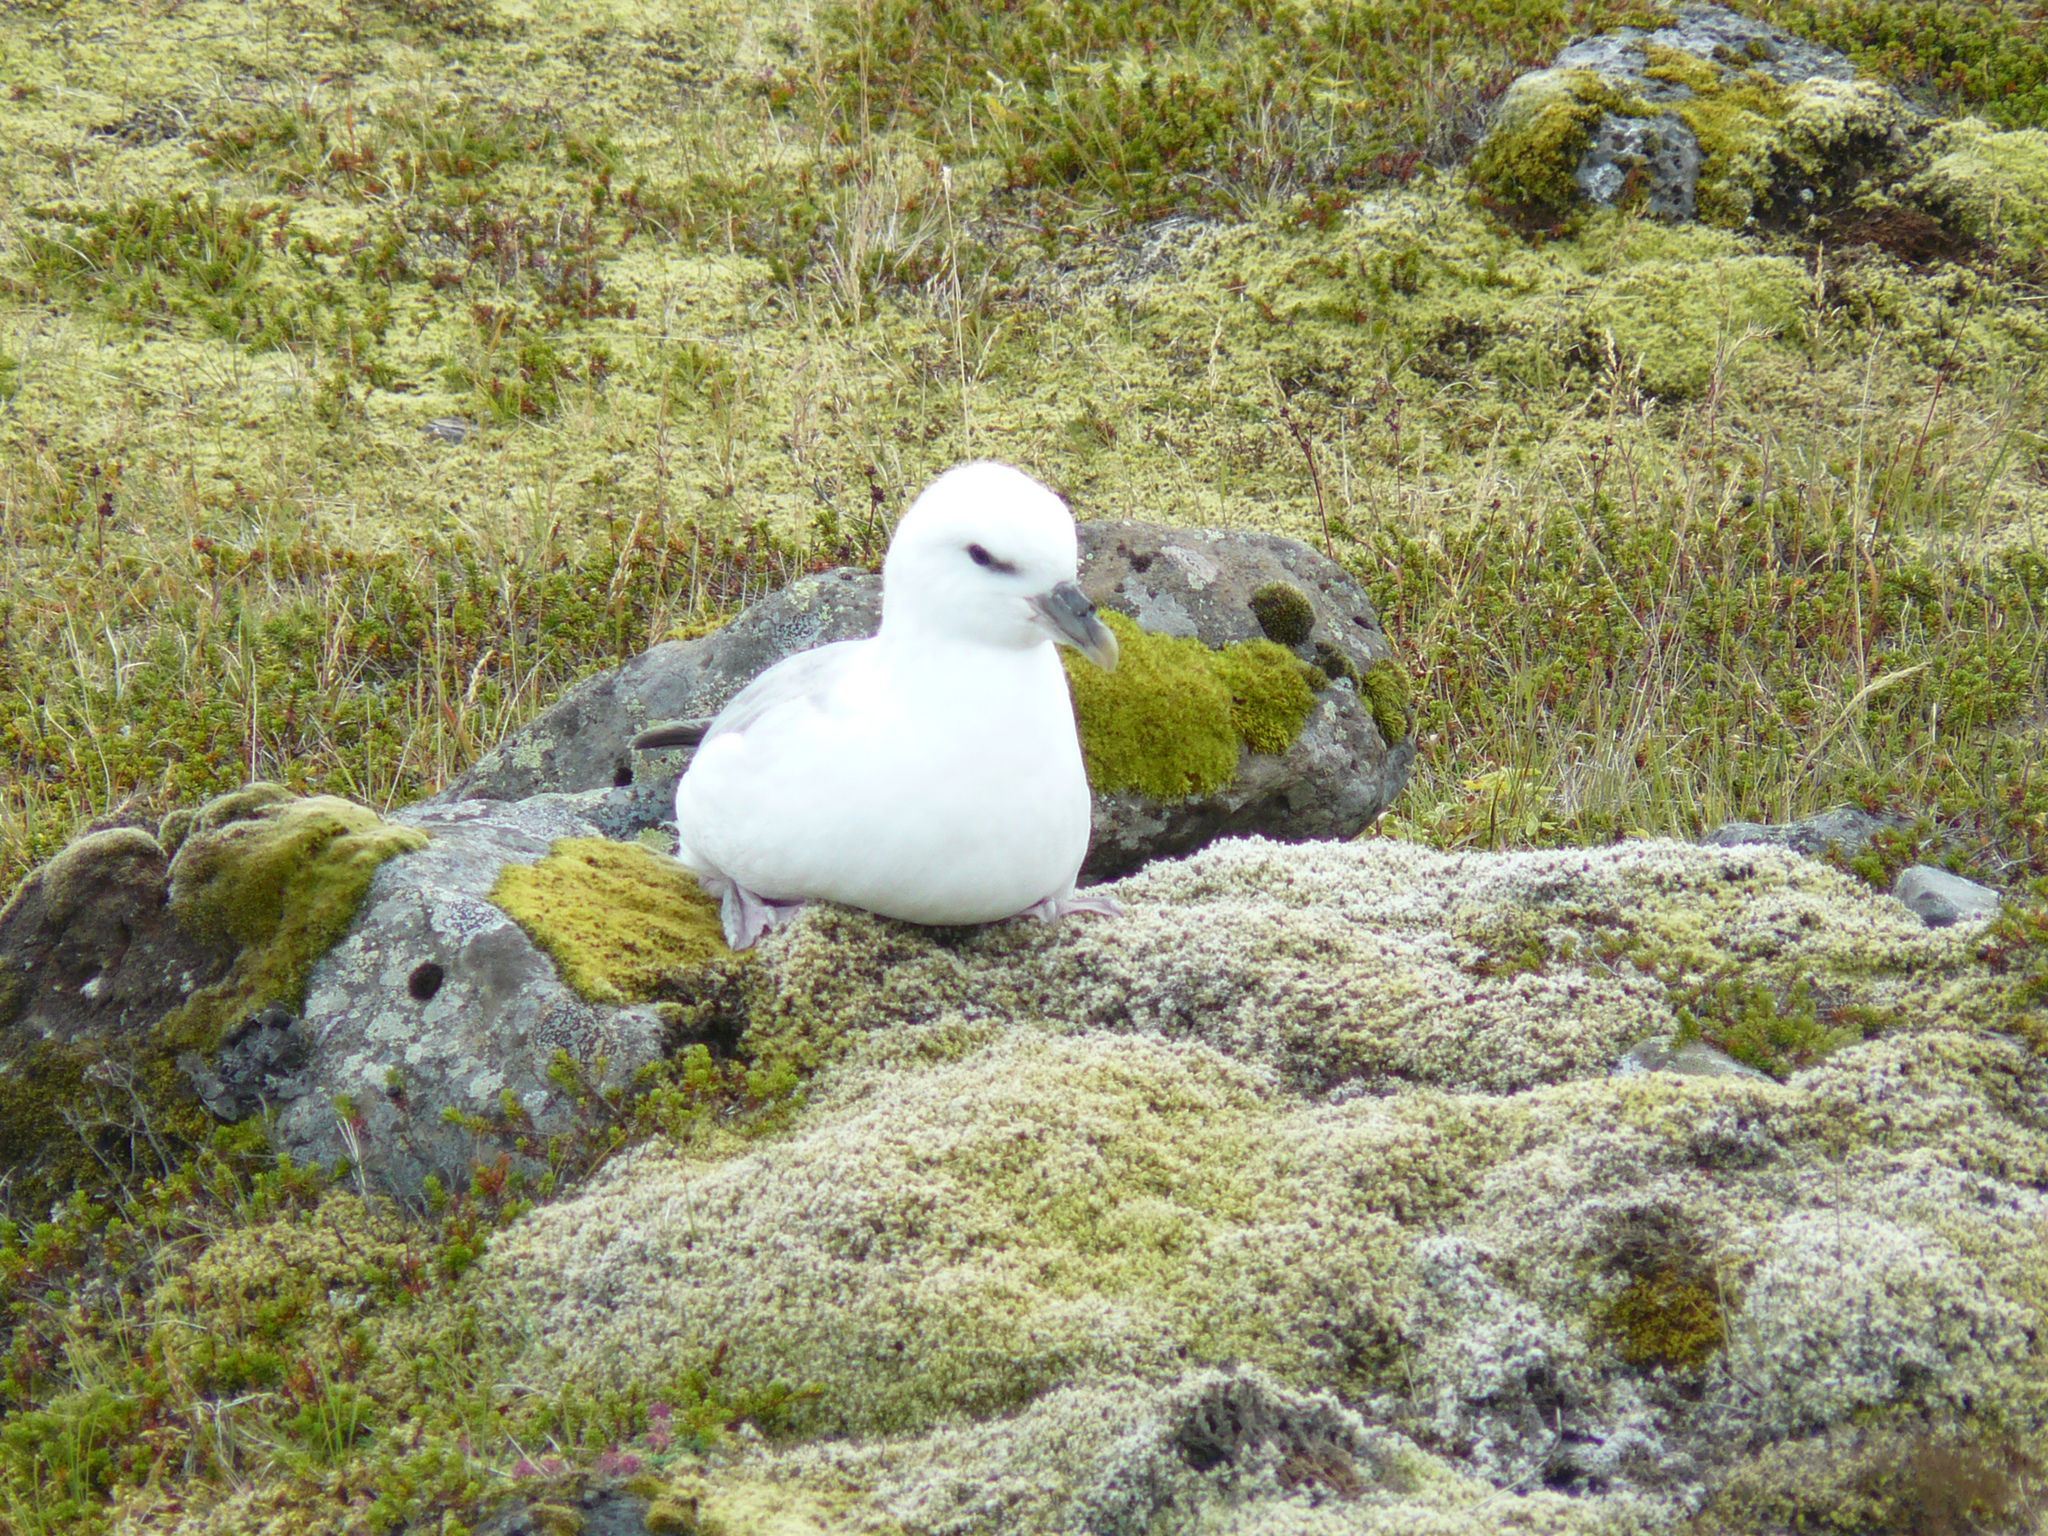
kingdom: Animalia
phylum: Chordata
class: Aves
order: Procellariiformes
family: Procellariidae
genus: Fulmarus
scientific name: Fulmarus glacialis
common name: Northern fulmar
